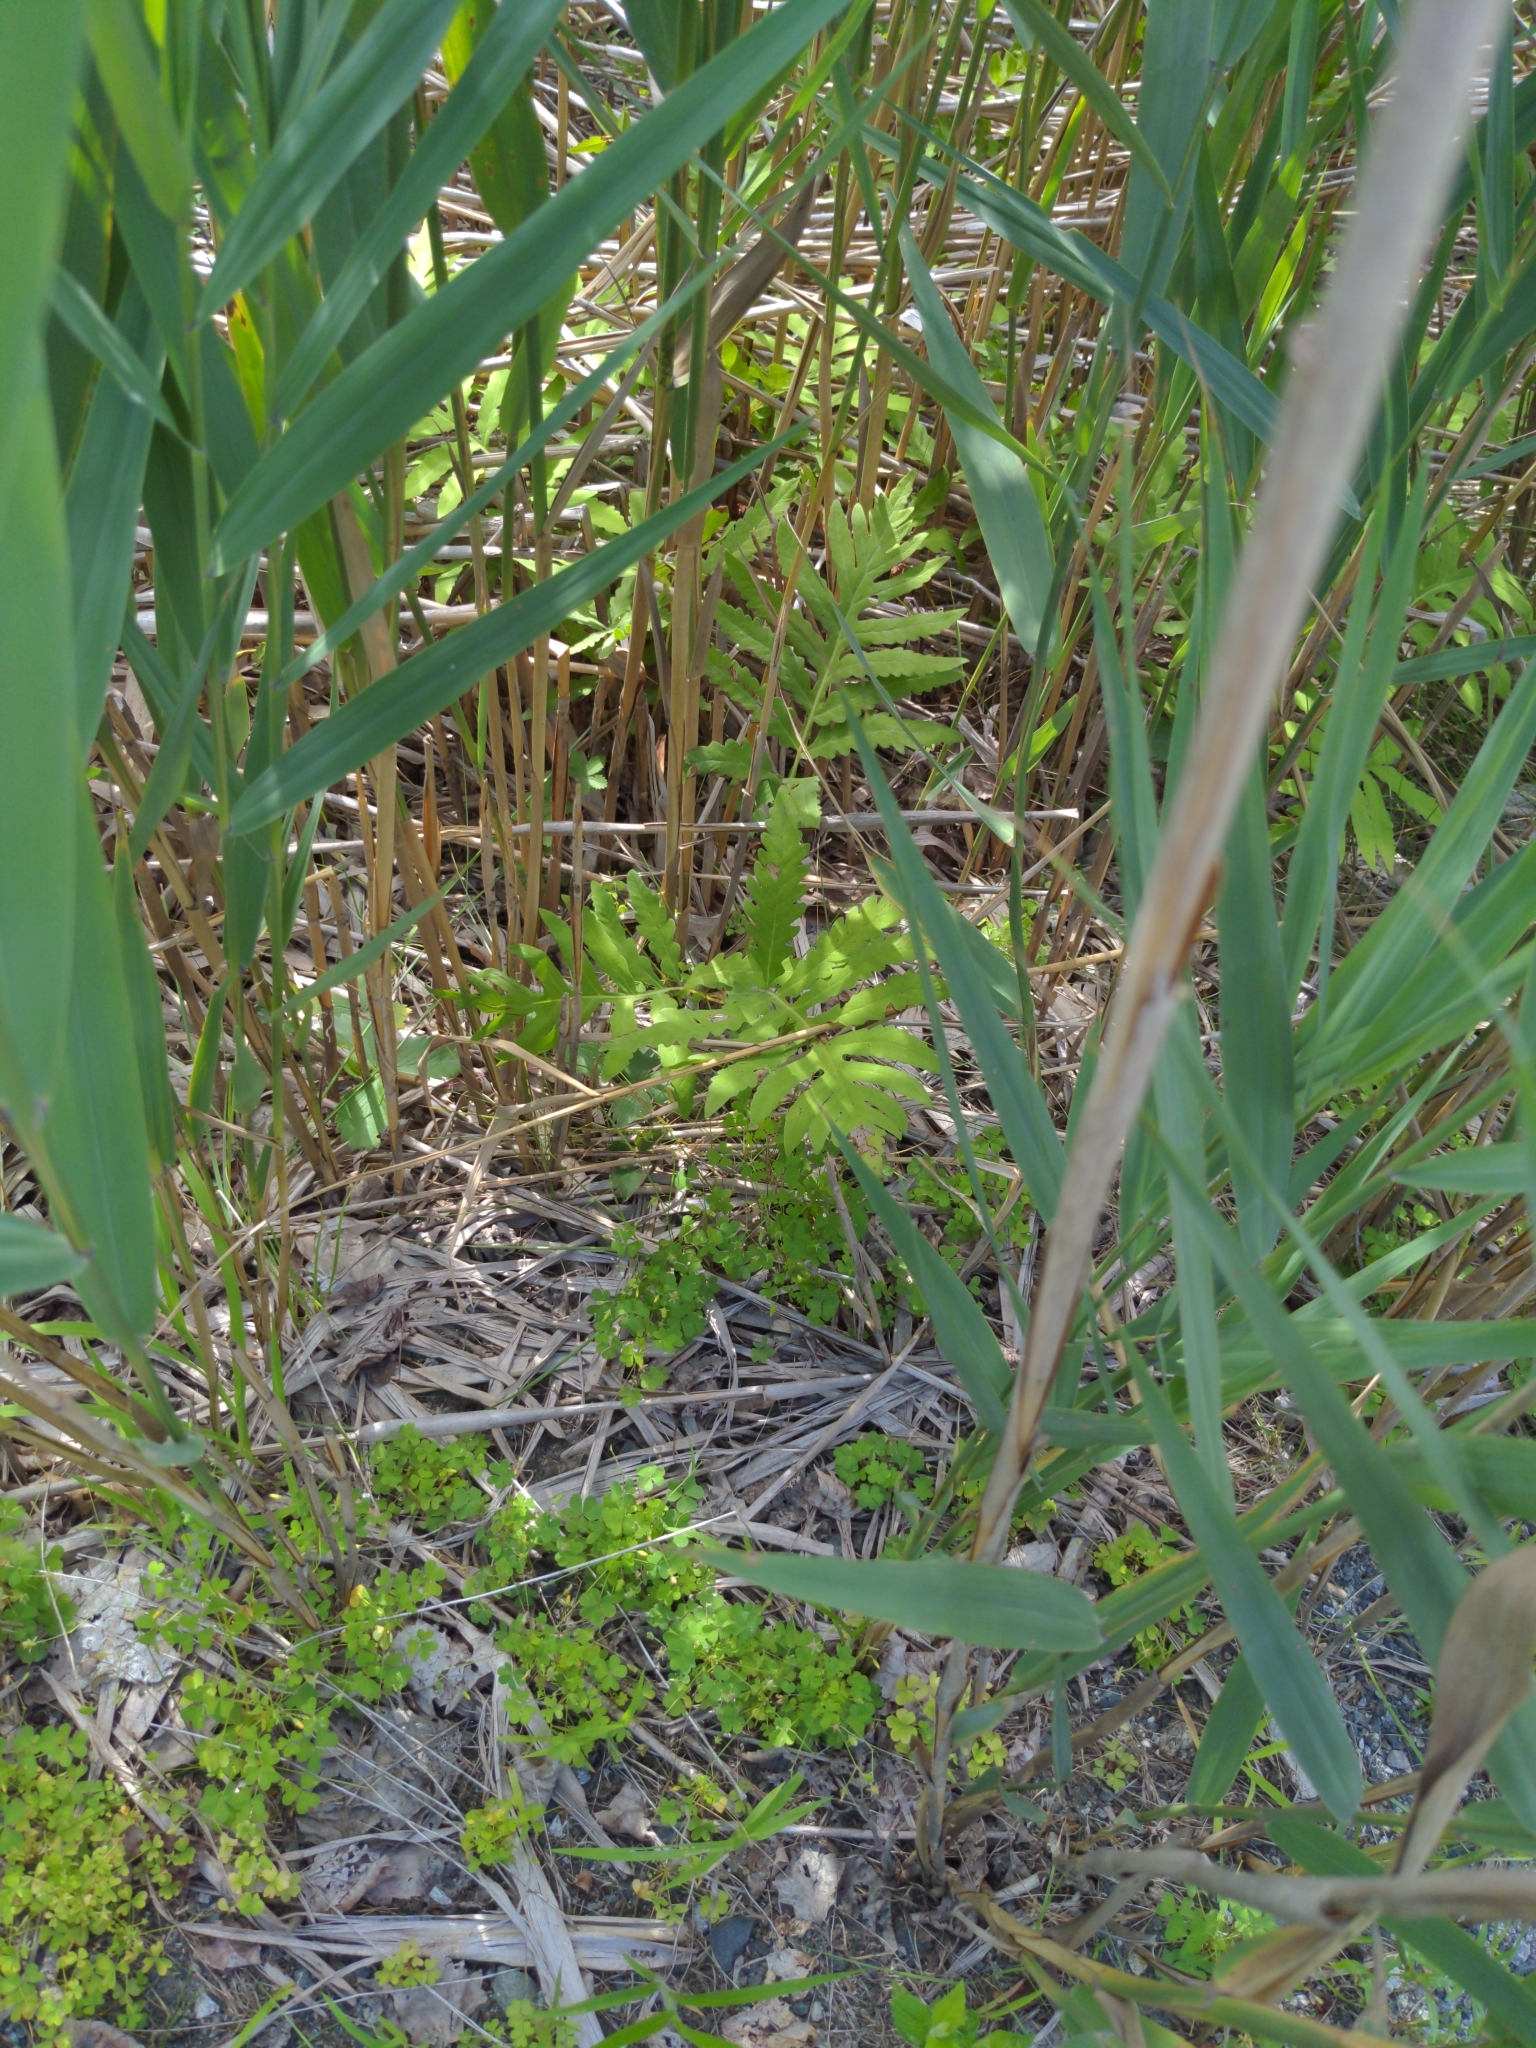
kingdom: Plantae
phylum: Tracheophyta
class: Polypodiopsida
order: Polypodiales
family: Onocleaceae
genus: Onoclea
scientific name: Onoclea sensibilis
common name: Sensitive fern
